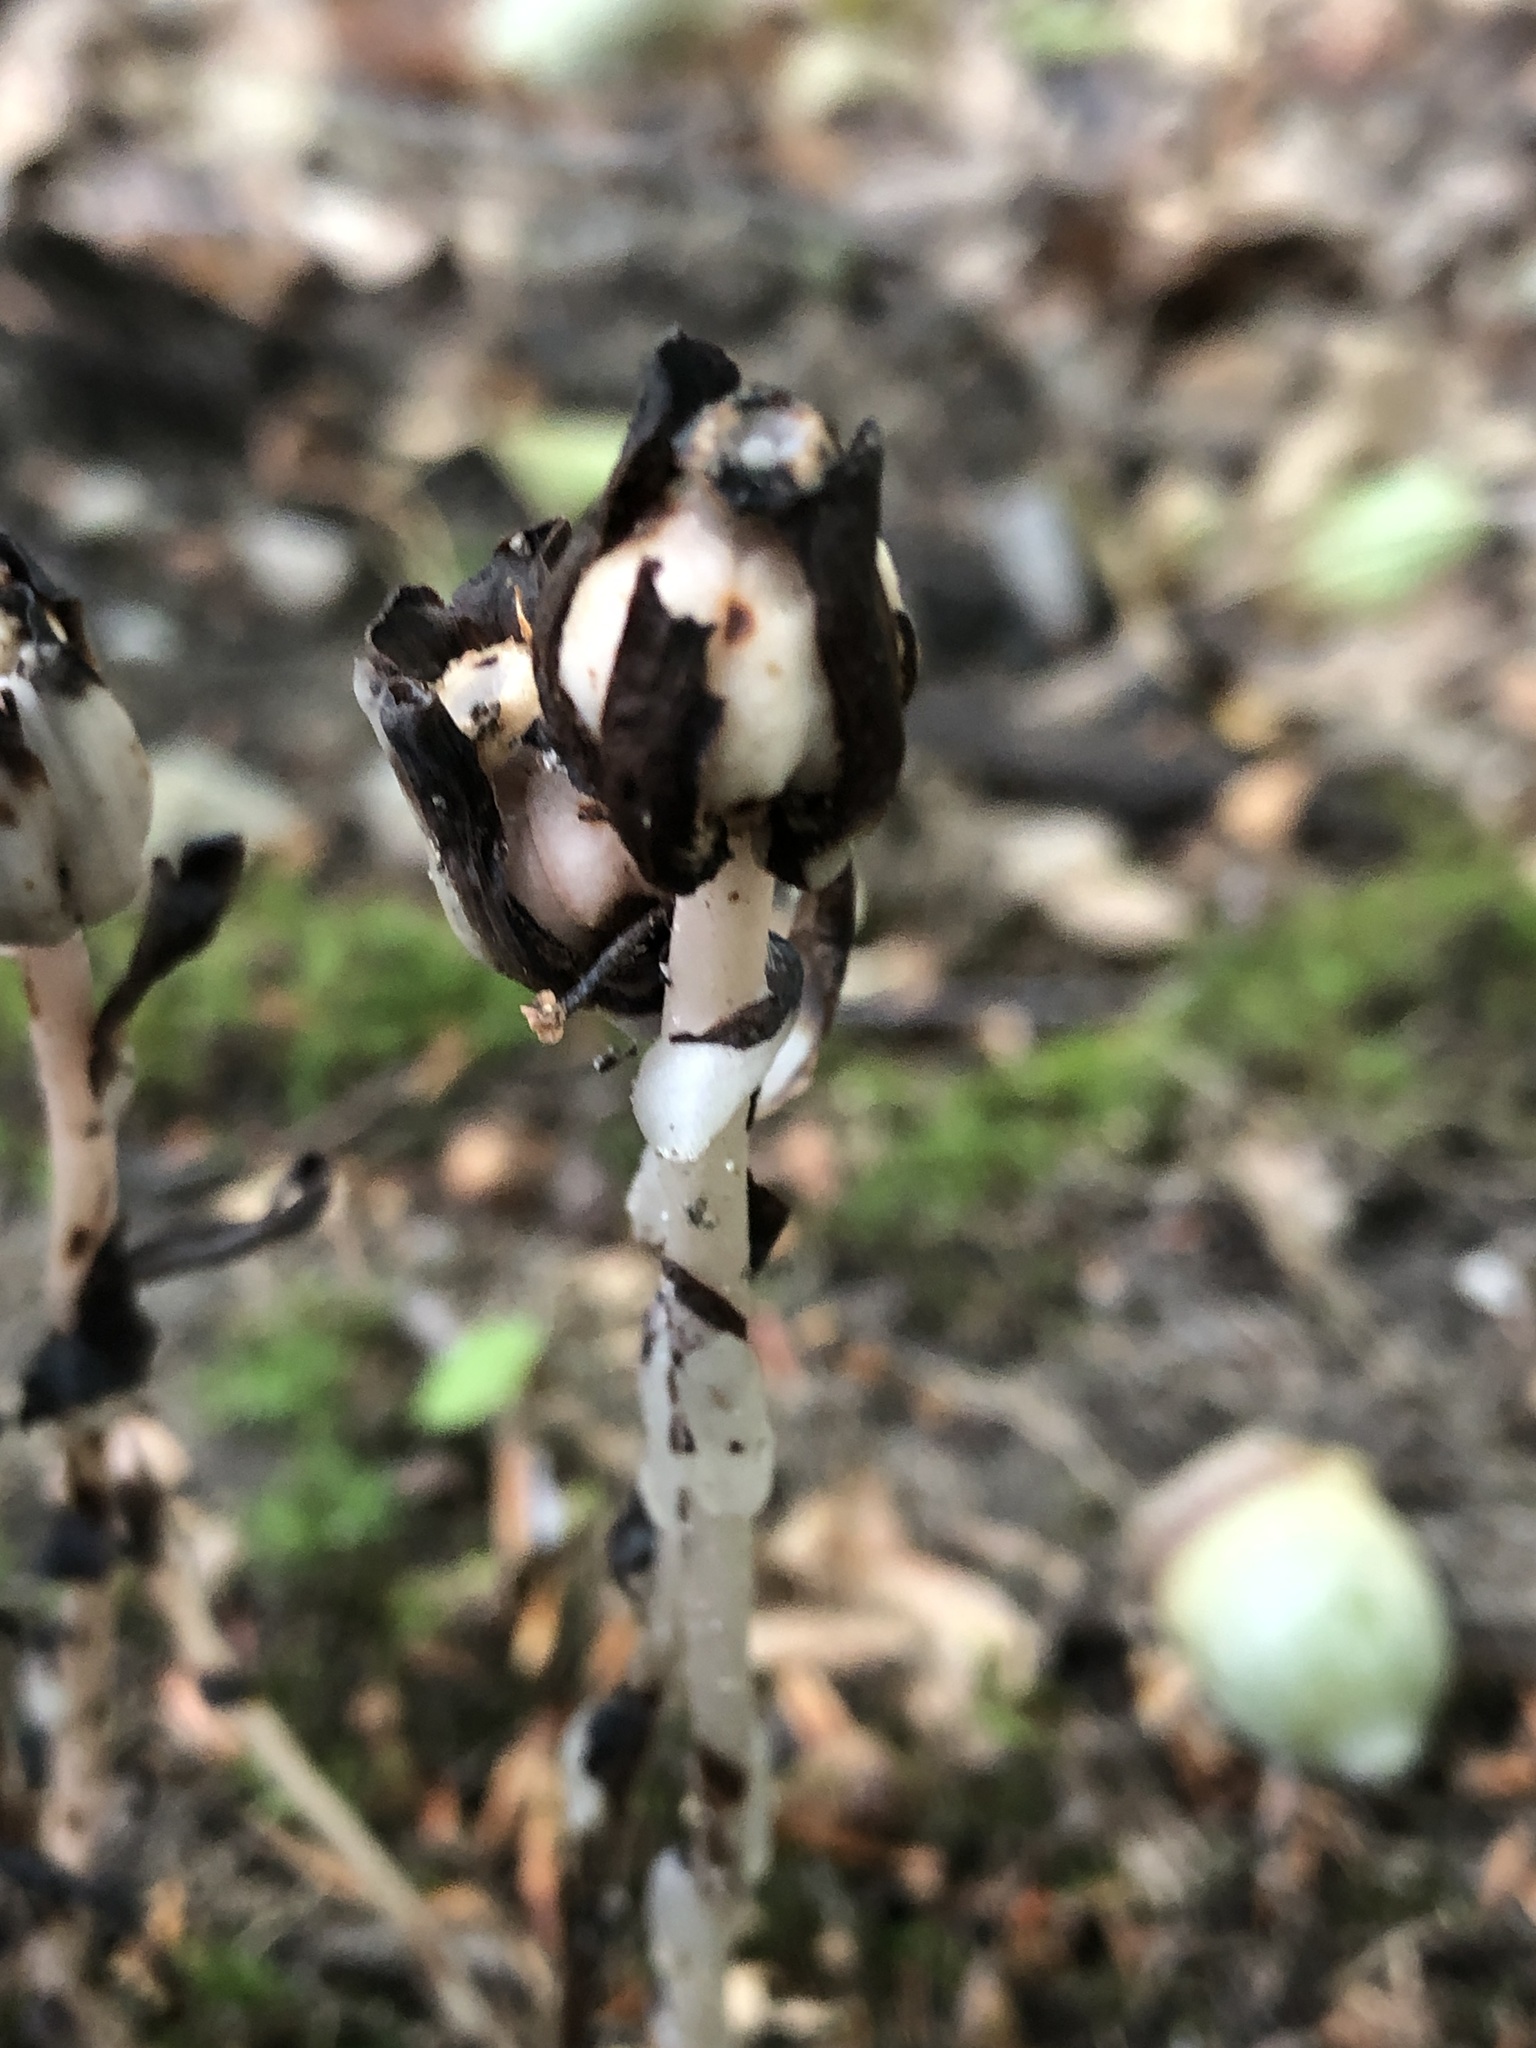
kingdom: Plantae
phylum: Tracheophyta
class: Magnoliopsida
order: Ericales
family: Ericaceae
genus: Monotropa
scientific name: Monotropa uniflora
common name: Convulsion root
